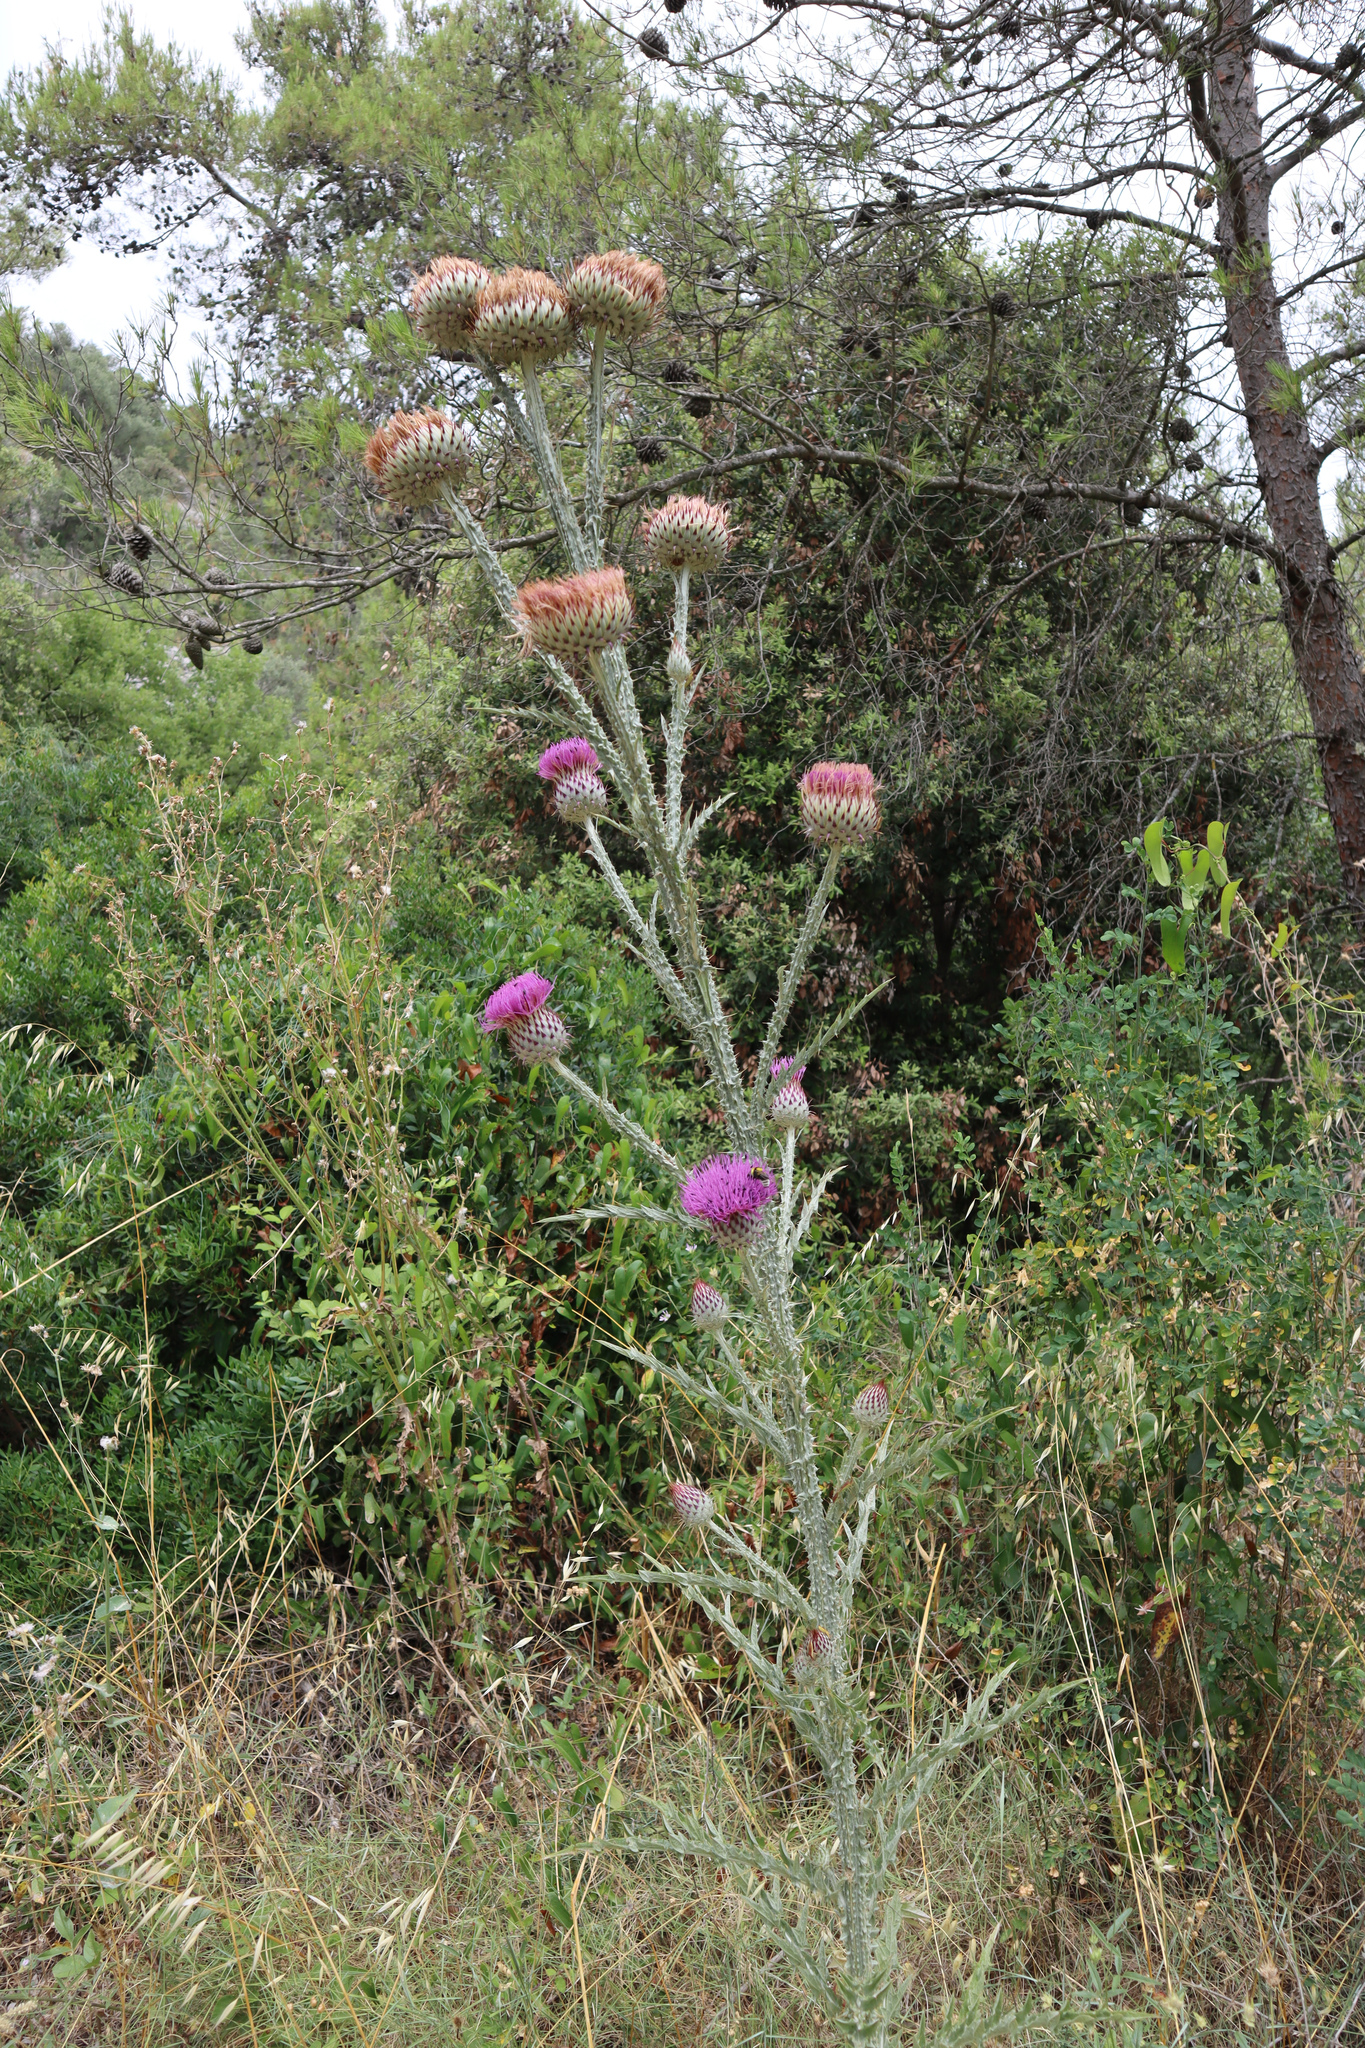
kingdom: Plantae
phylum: Tracheophyta
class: Magnoliopsida
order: Asterales
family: Asteraceae
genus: Onopordum
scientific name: Onopordum illyricum
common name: Illyrian thistle
